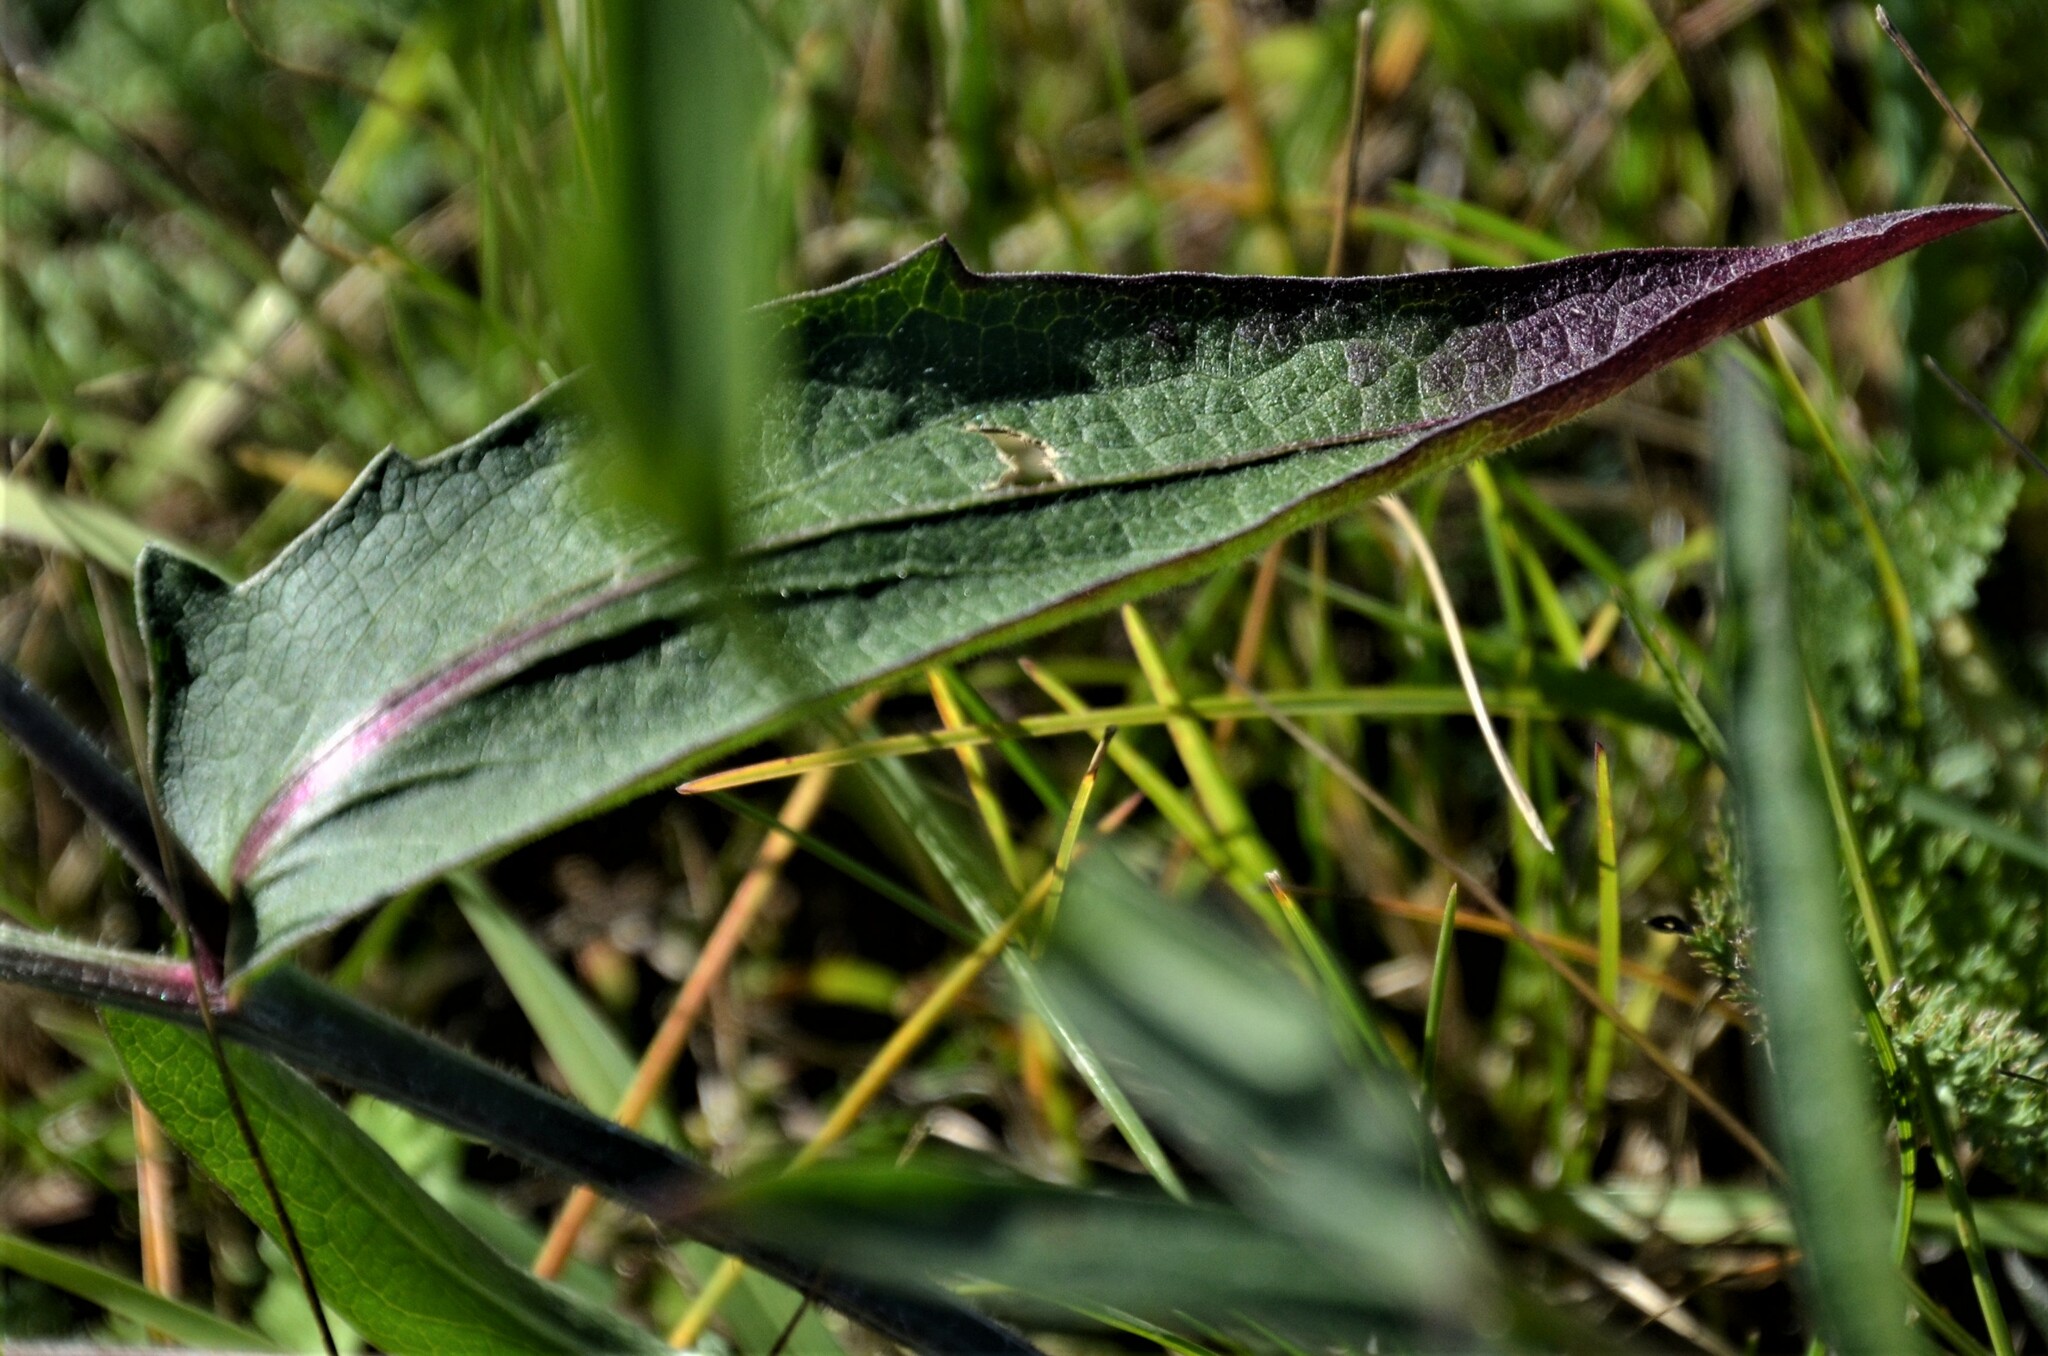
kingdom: Plantae
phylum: Tracheophyta
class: Magnoliopsida
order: Asterales
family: Asteraceae
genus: Centaurea
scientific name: Centaurea jacea
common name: Brown knapweed
